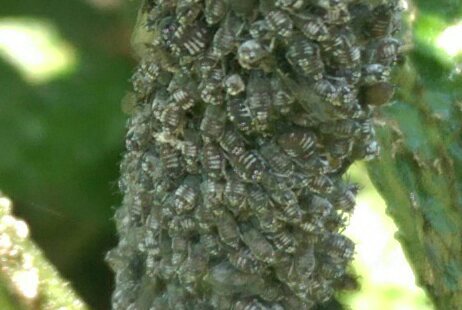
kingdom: Animalia
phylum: Arthropoda
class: Insecta
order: Hemiptera
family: Aphididae
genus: Aphis
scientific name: Aphis sambuci
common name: Elder aphid
